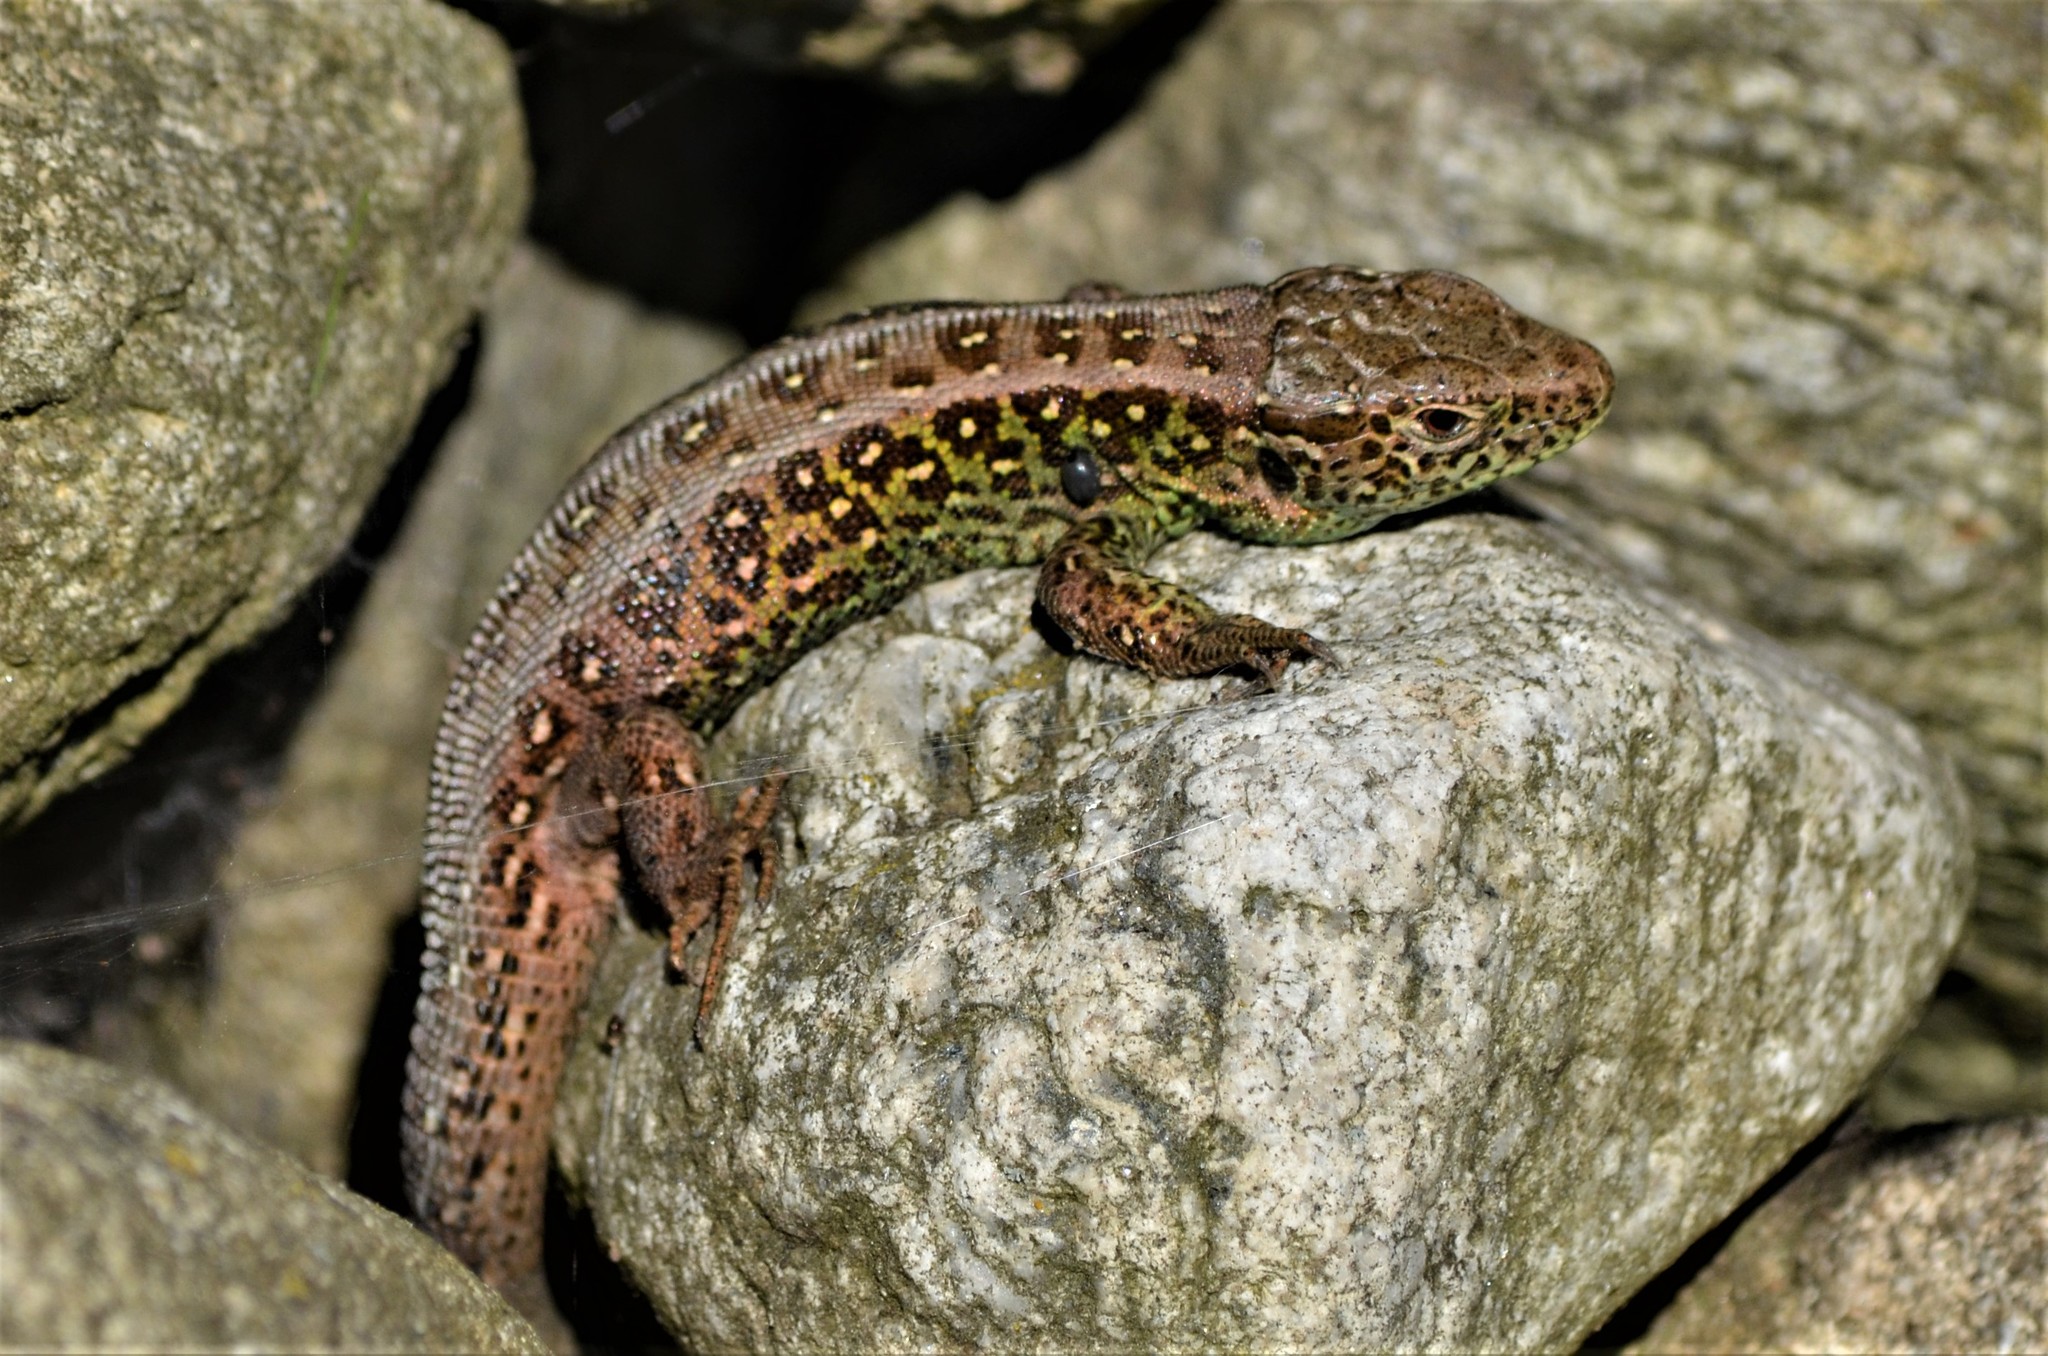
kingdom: Animalia
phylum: Chordata
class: Squamata
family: Lacertidae
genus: Lacerta
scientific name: Lacerta agilis
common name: Sand lizard
